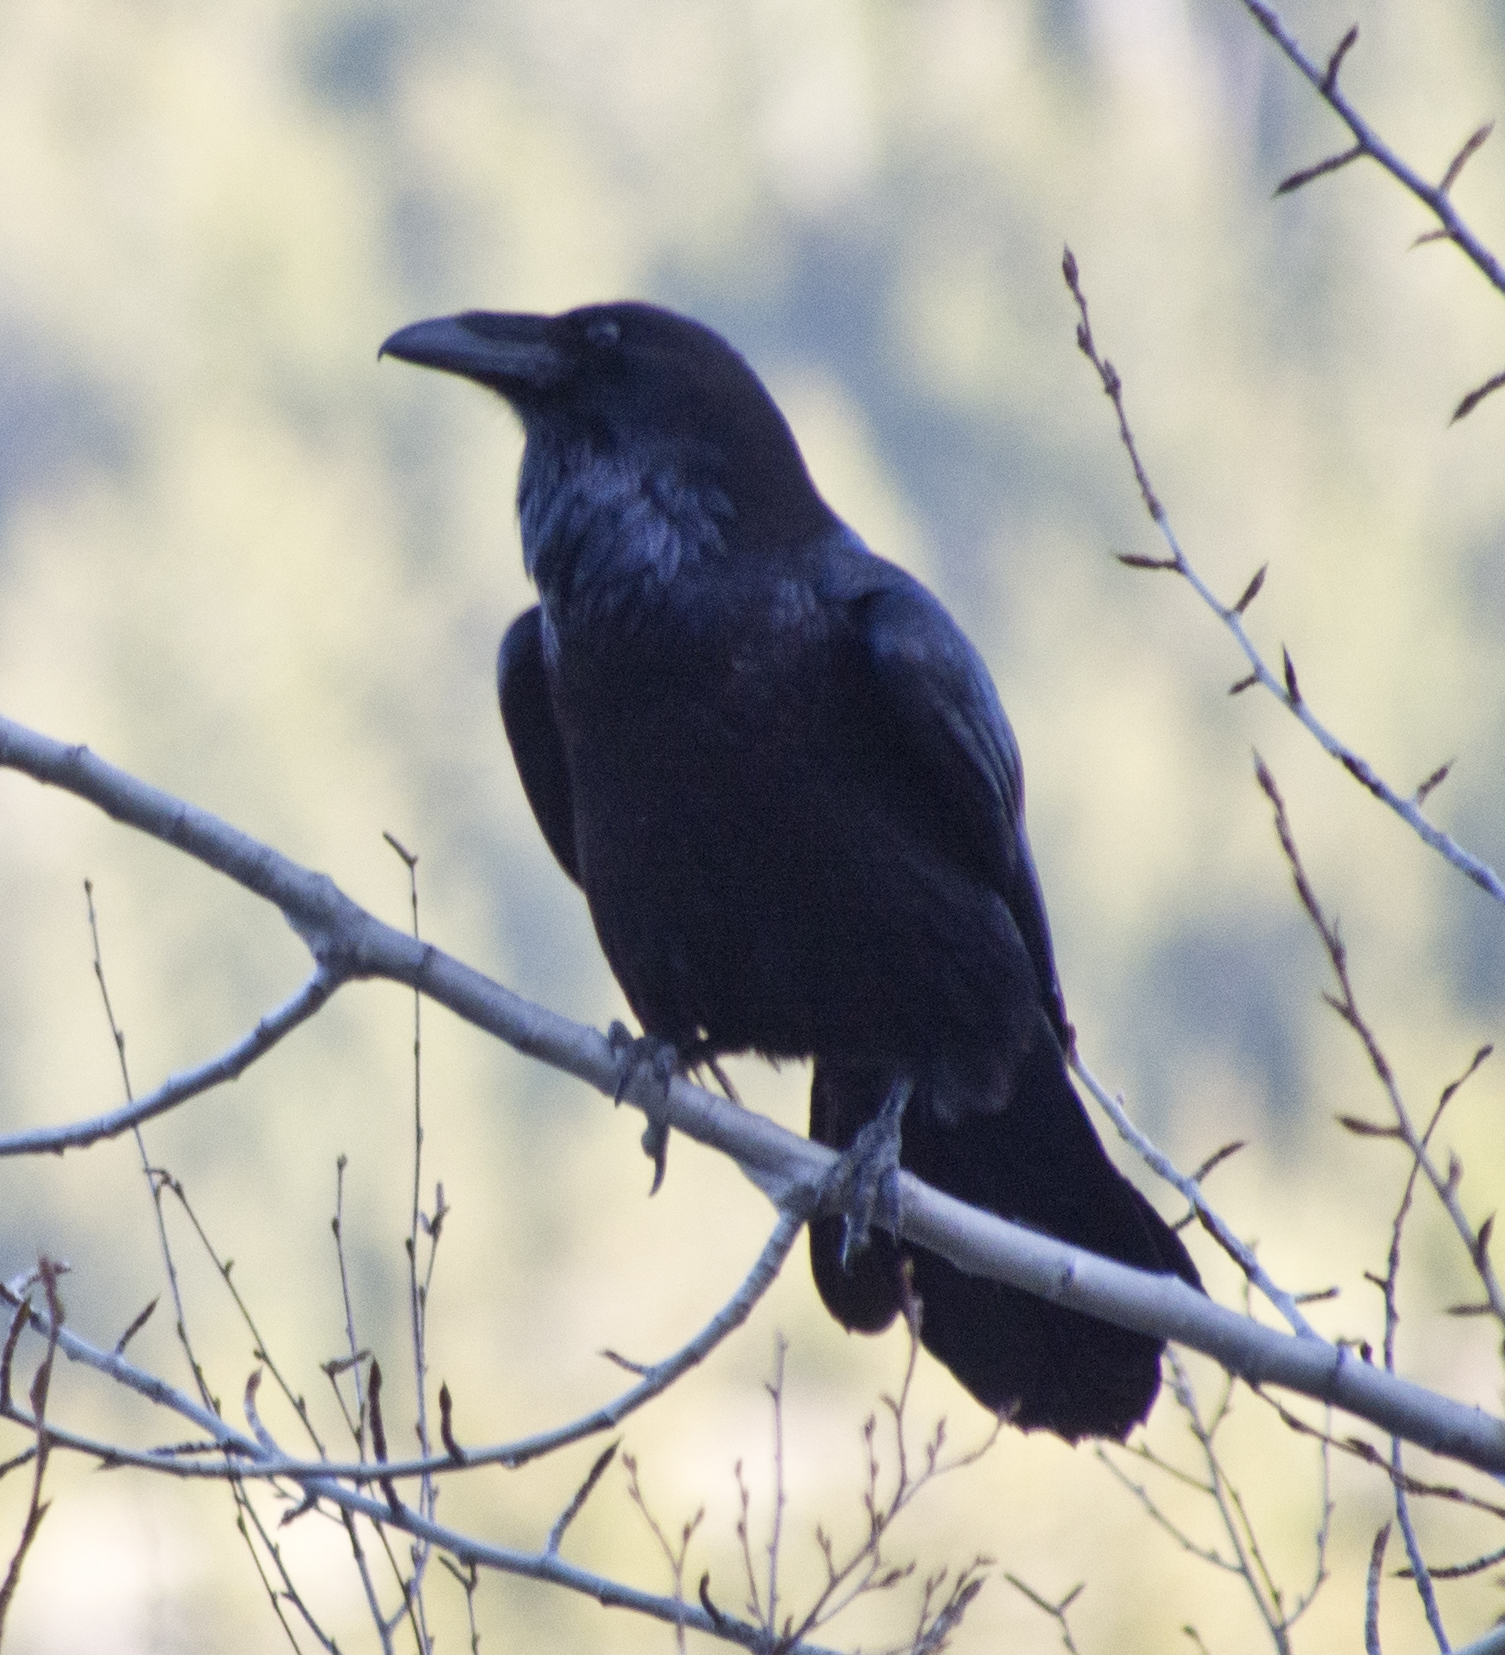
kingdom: Animalia
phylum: Chordata
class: Aves
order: Passeriformes
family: Corvidae
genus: Corvus
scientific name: Corvus corax
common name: Common raven
